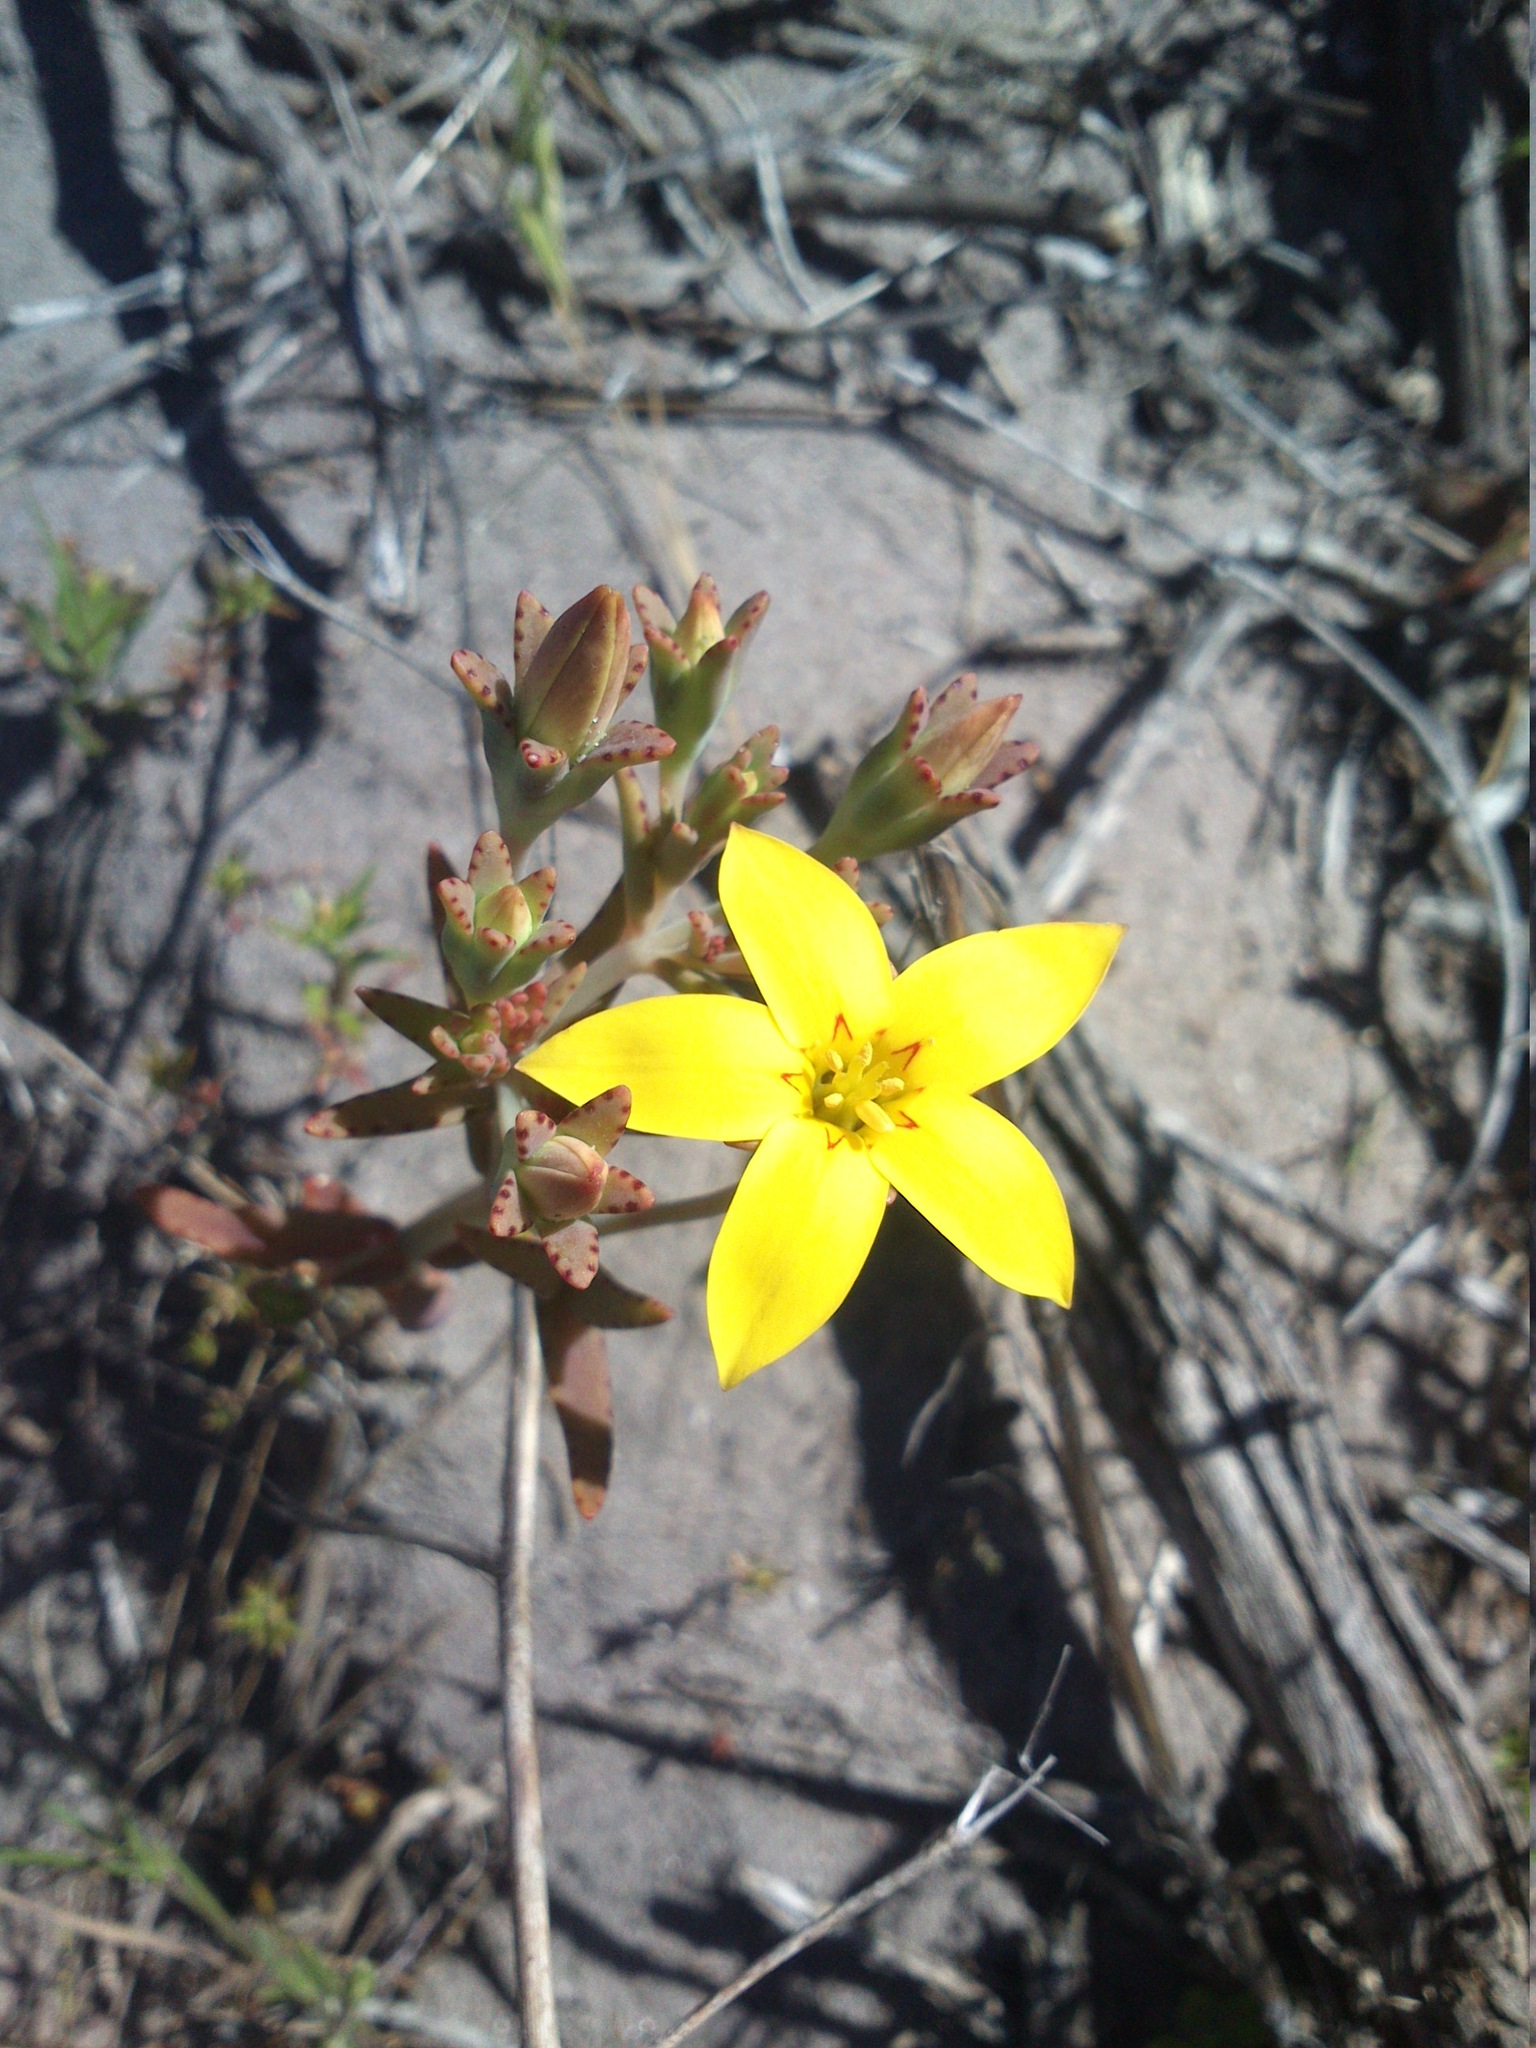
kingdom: Plantae
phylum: Tracheophyta
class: Magnoliopsida
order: Saxifragales
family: Crassulaceae
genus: Crassula
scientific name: Crassula dichotoma
